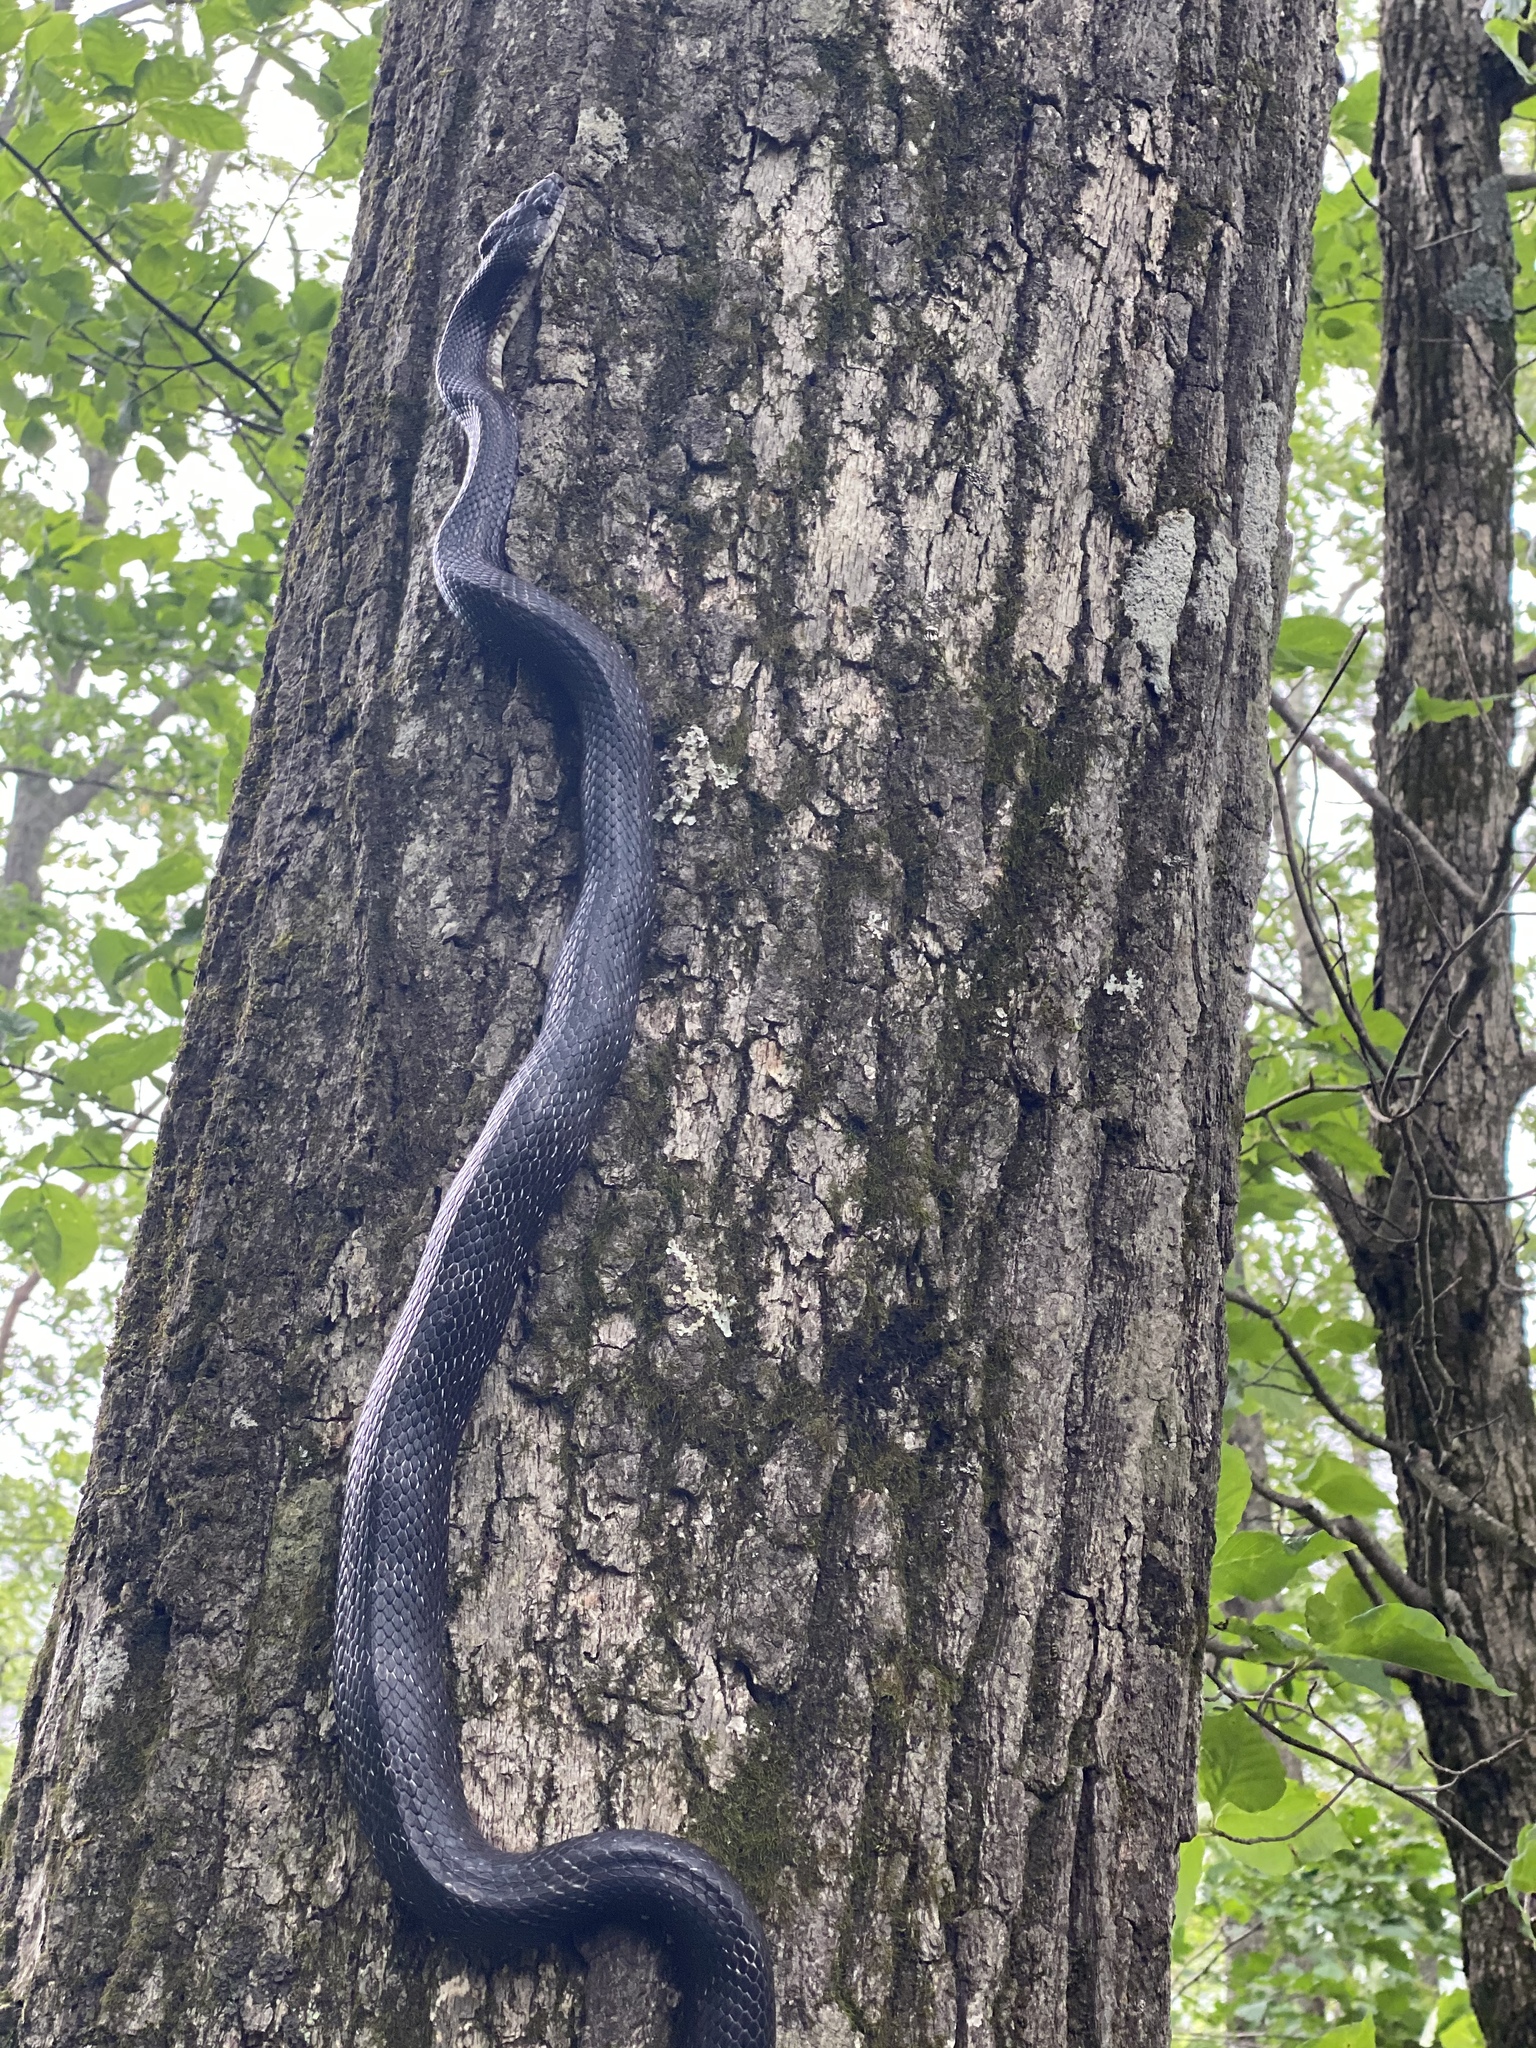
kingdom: Animalia
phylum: Chordata
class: Squamata
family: Colubridae
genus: Pantherophis
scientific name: Pantherophis alleghaniensis
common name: Eastern rat snake
